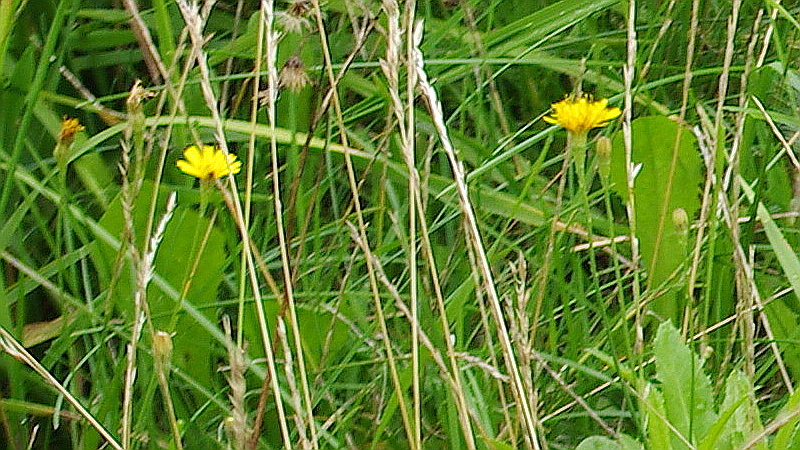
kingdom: Plantae
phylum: Tracheophyta
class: Magnoliopsida
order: Asterales
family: Asteraceae
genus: Scorzoneroides
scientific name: Scorzoneroides autumnalis
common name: Autumn hawkbit
